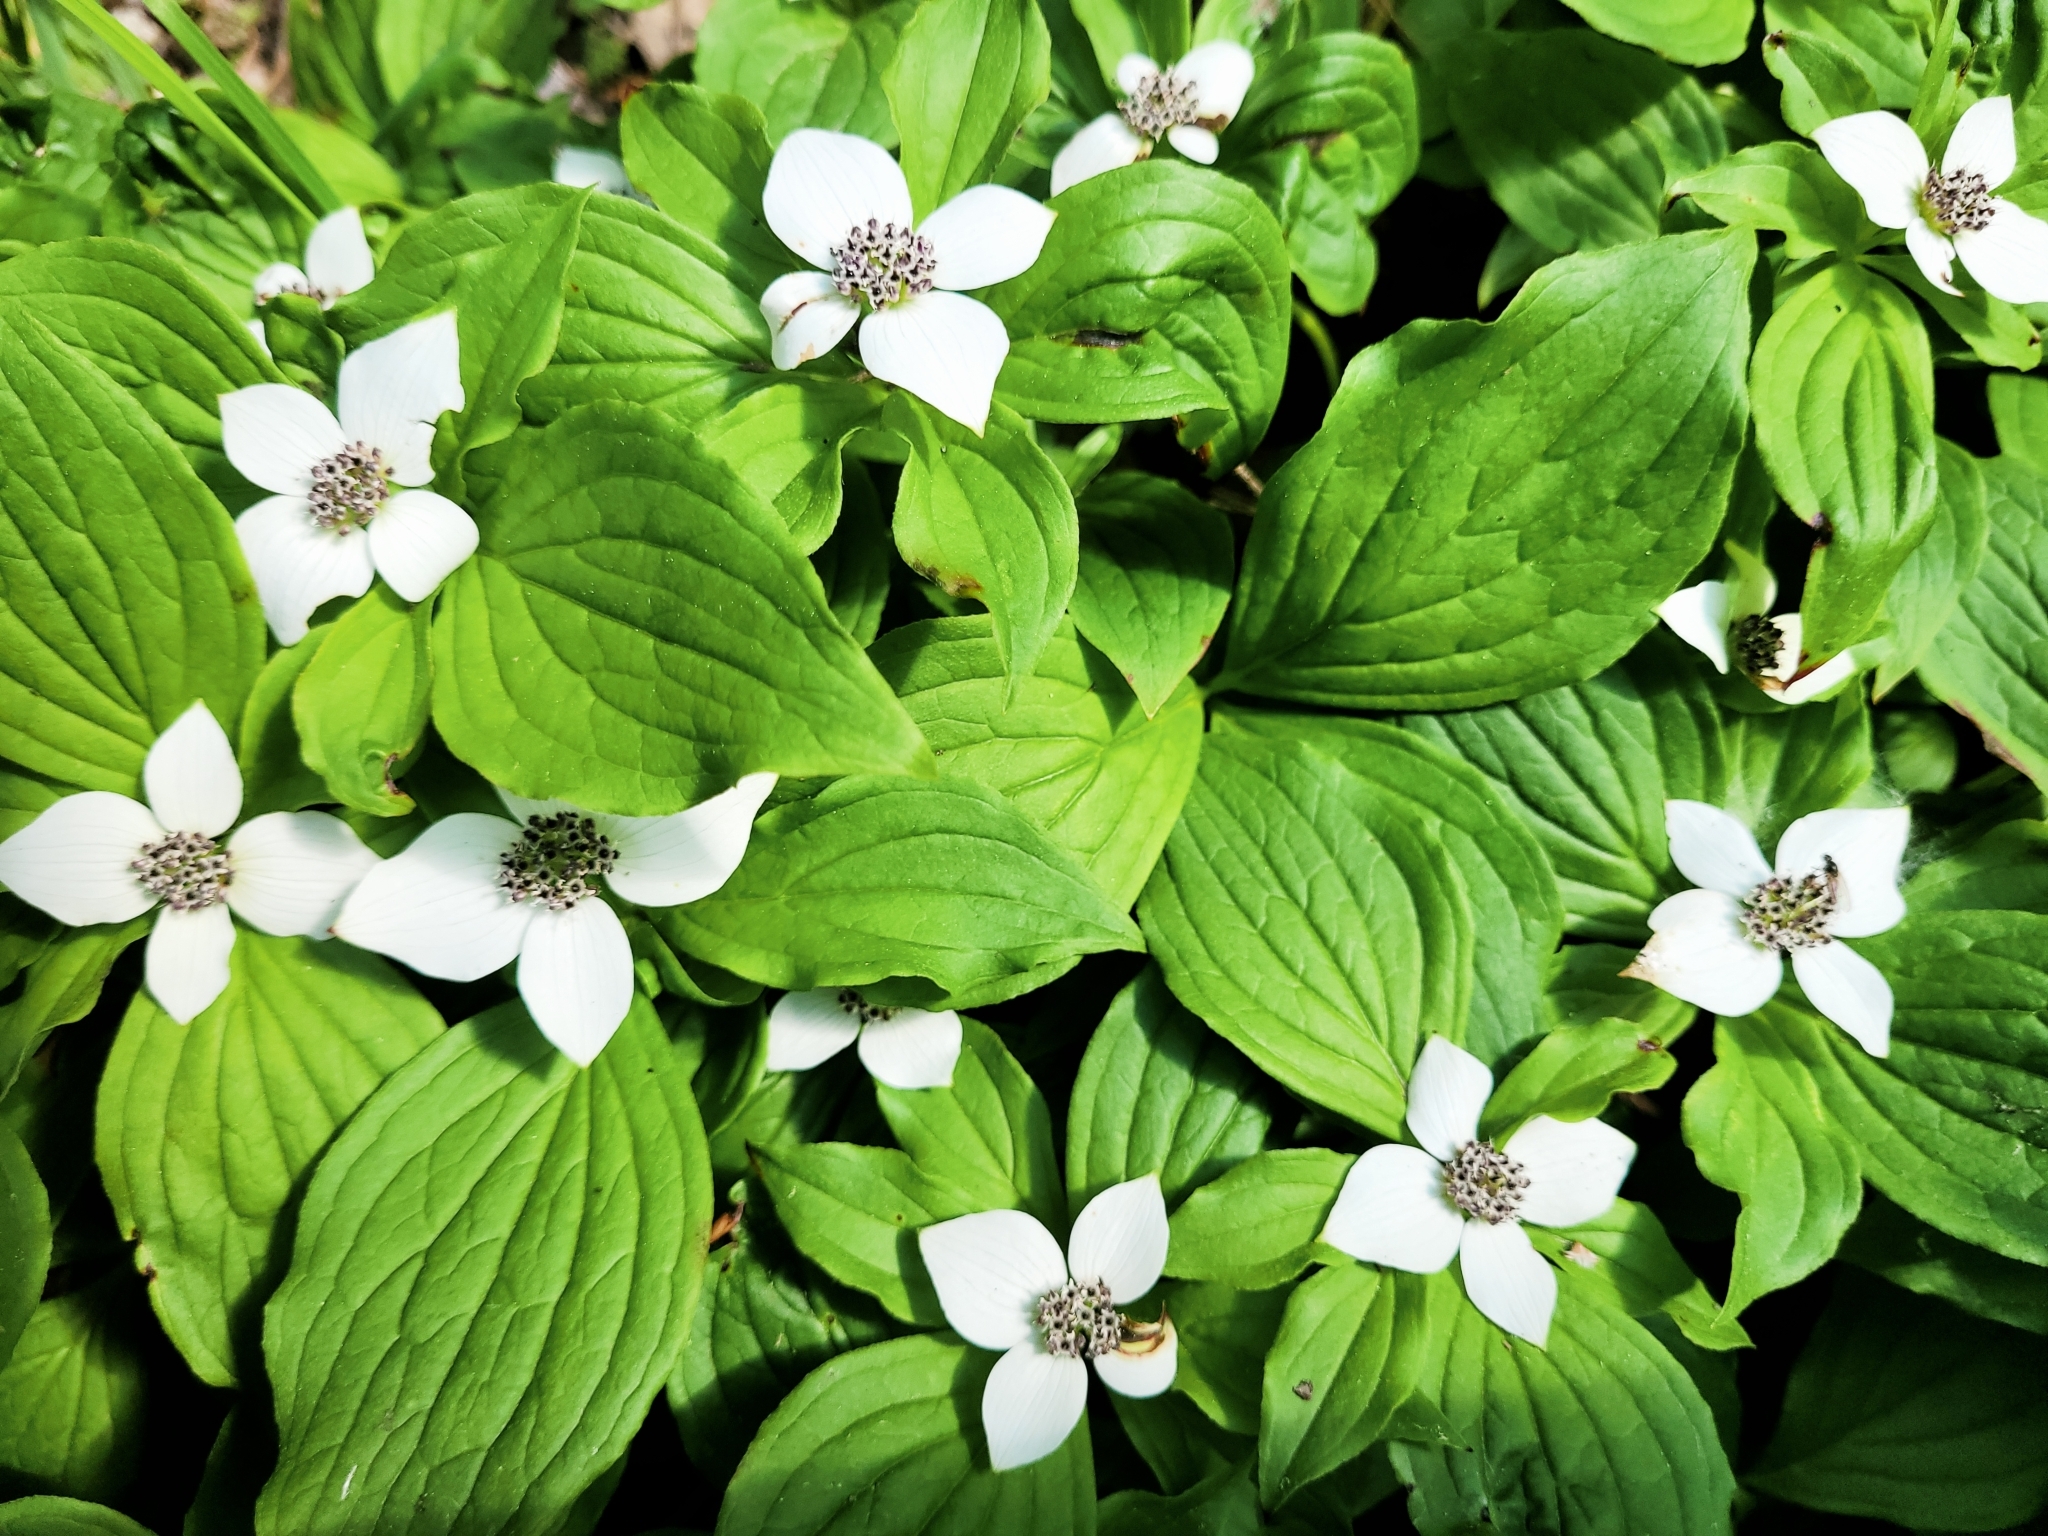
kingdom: Plantae
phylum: Tracheophyta
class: Magnoliopsida
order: Cornales
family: Cornaceae
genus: Cornus
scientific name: Cornus unalaschkensis
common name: Alaska bunchberry
